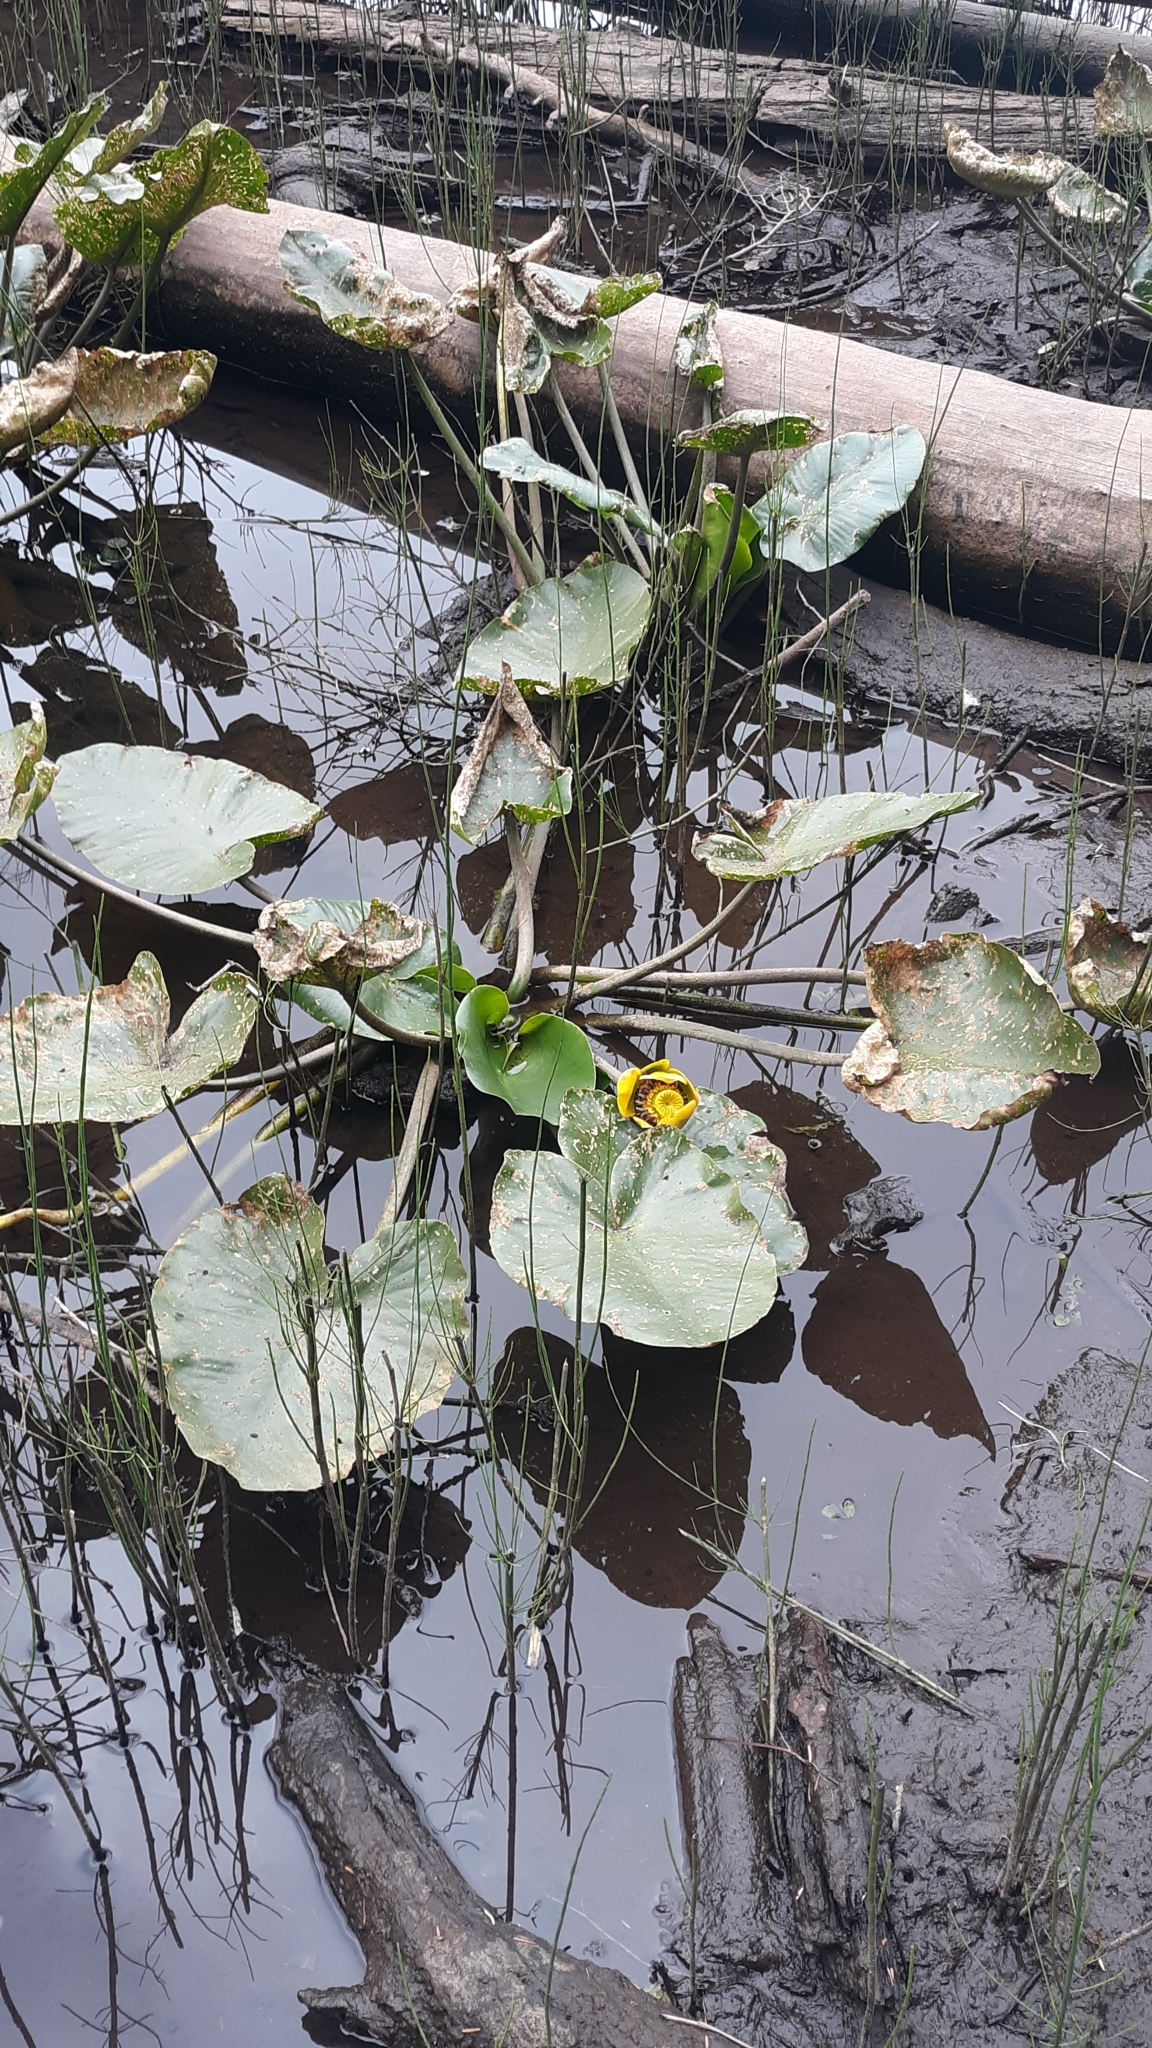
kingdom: Plantae
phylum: Tracheophyta
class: Magnoliopsida
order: Nymphaeales
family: Nymphaeaceae
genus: Nuphar
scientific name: Nuphar polysepala
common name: Rocky mountain cow-lily
